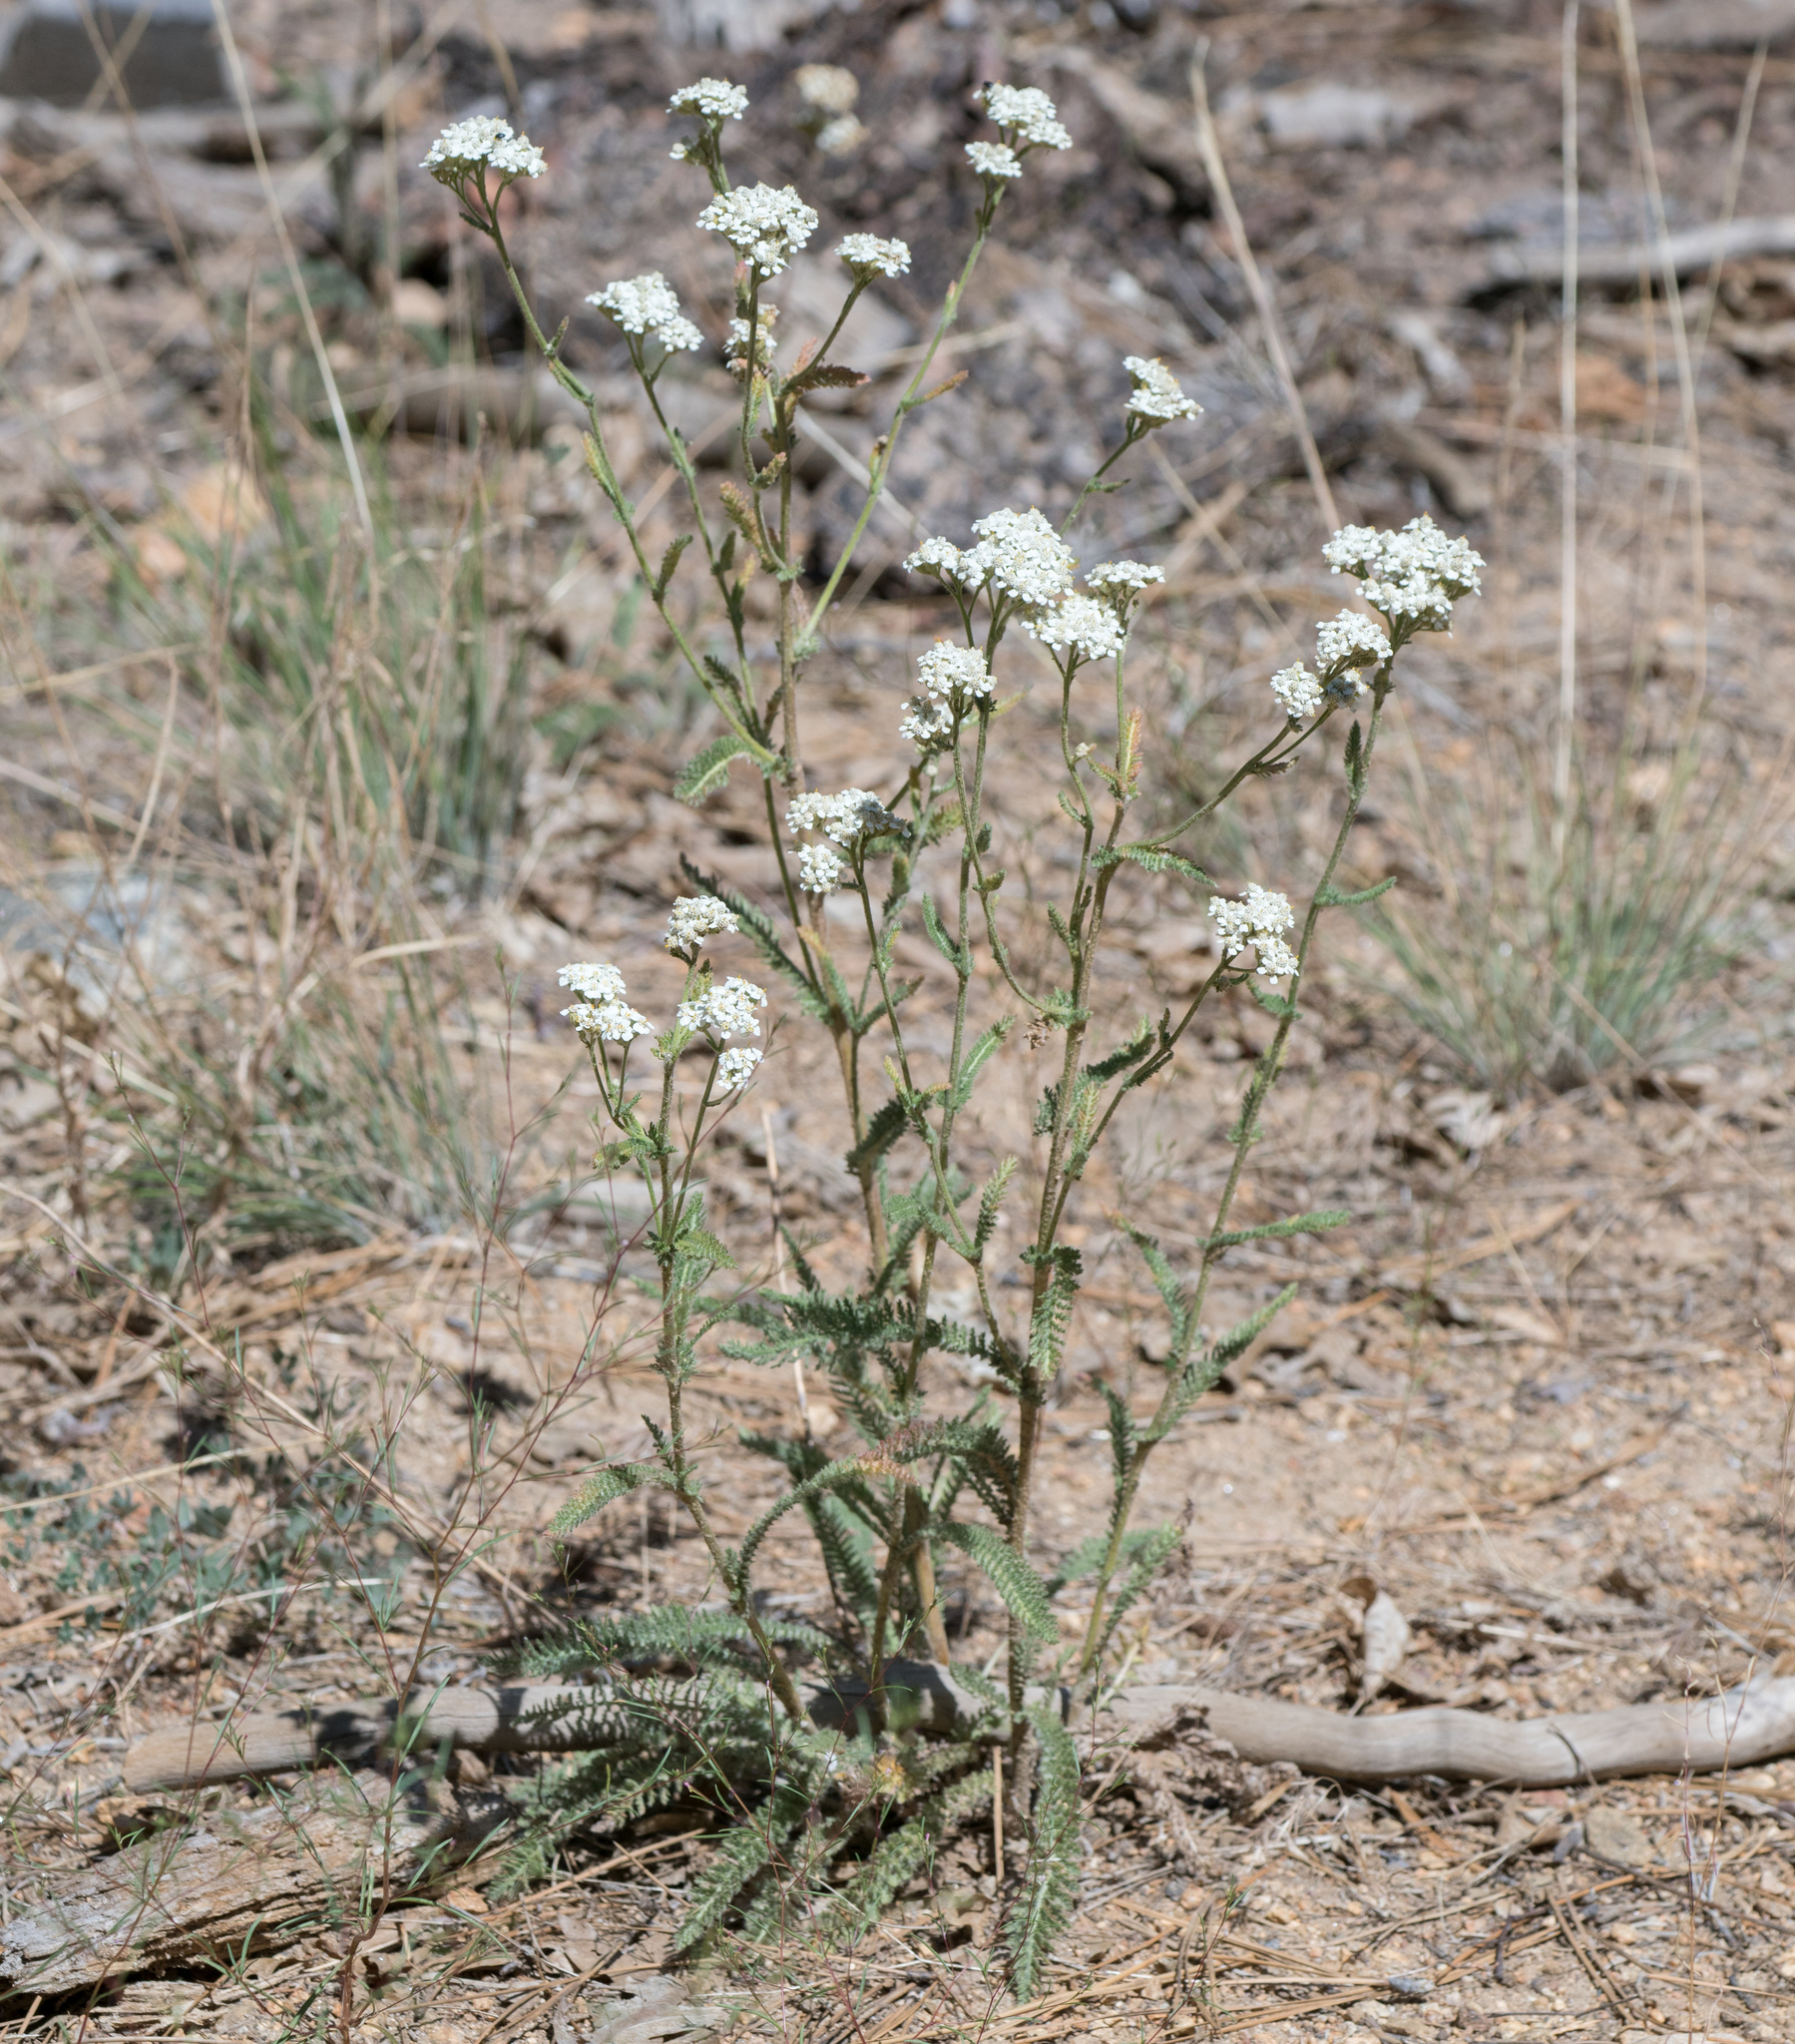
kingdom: Plantae
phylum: Tracheophyta
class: Magnoliopsida
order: Asterales
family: Asteraceae
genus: Achillea
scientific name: Achillea millefolium
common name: Yarrow
